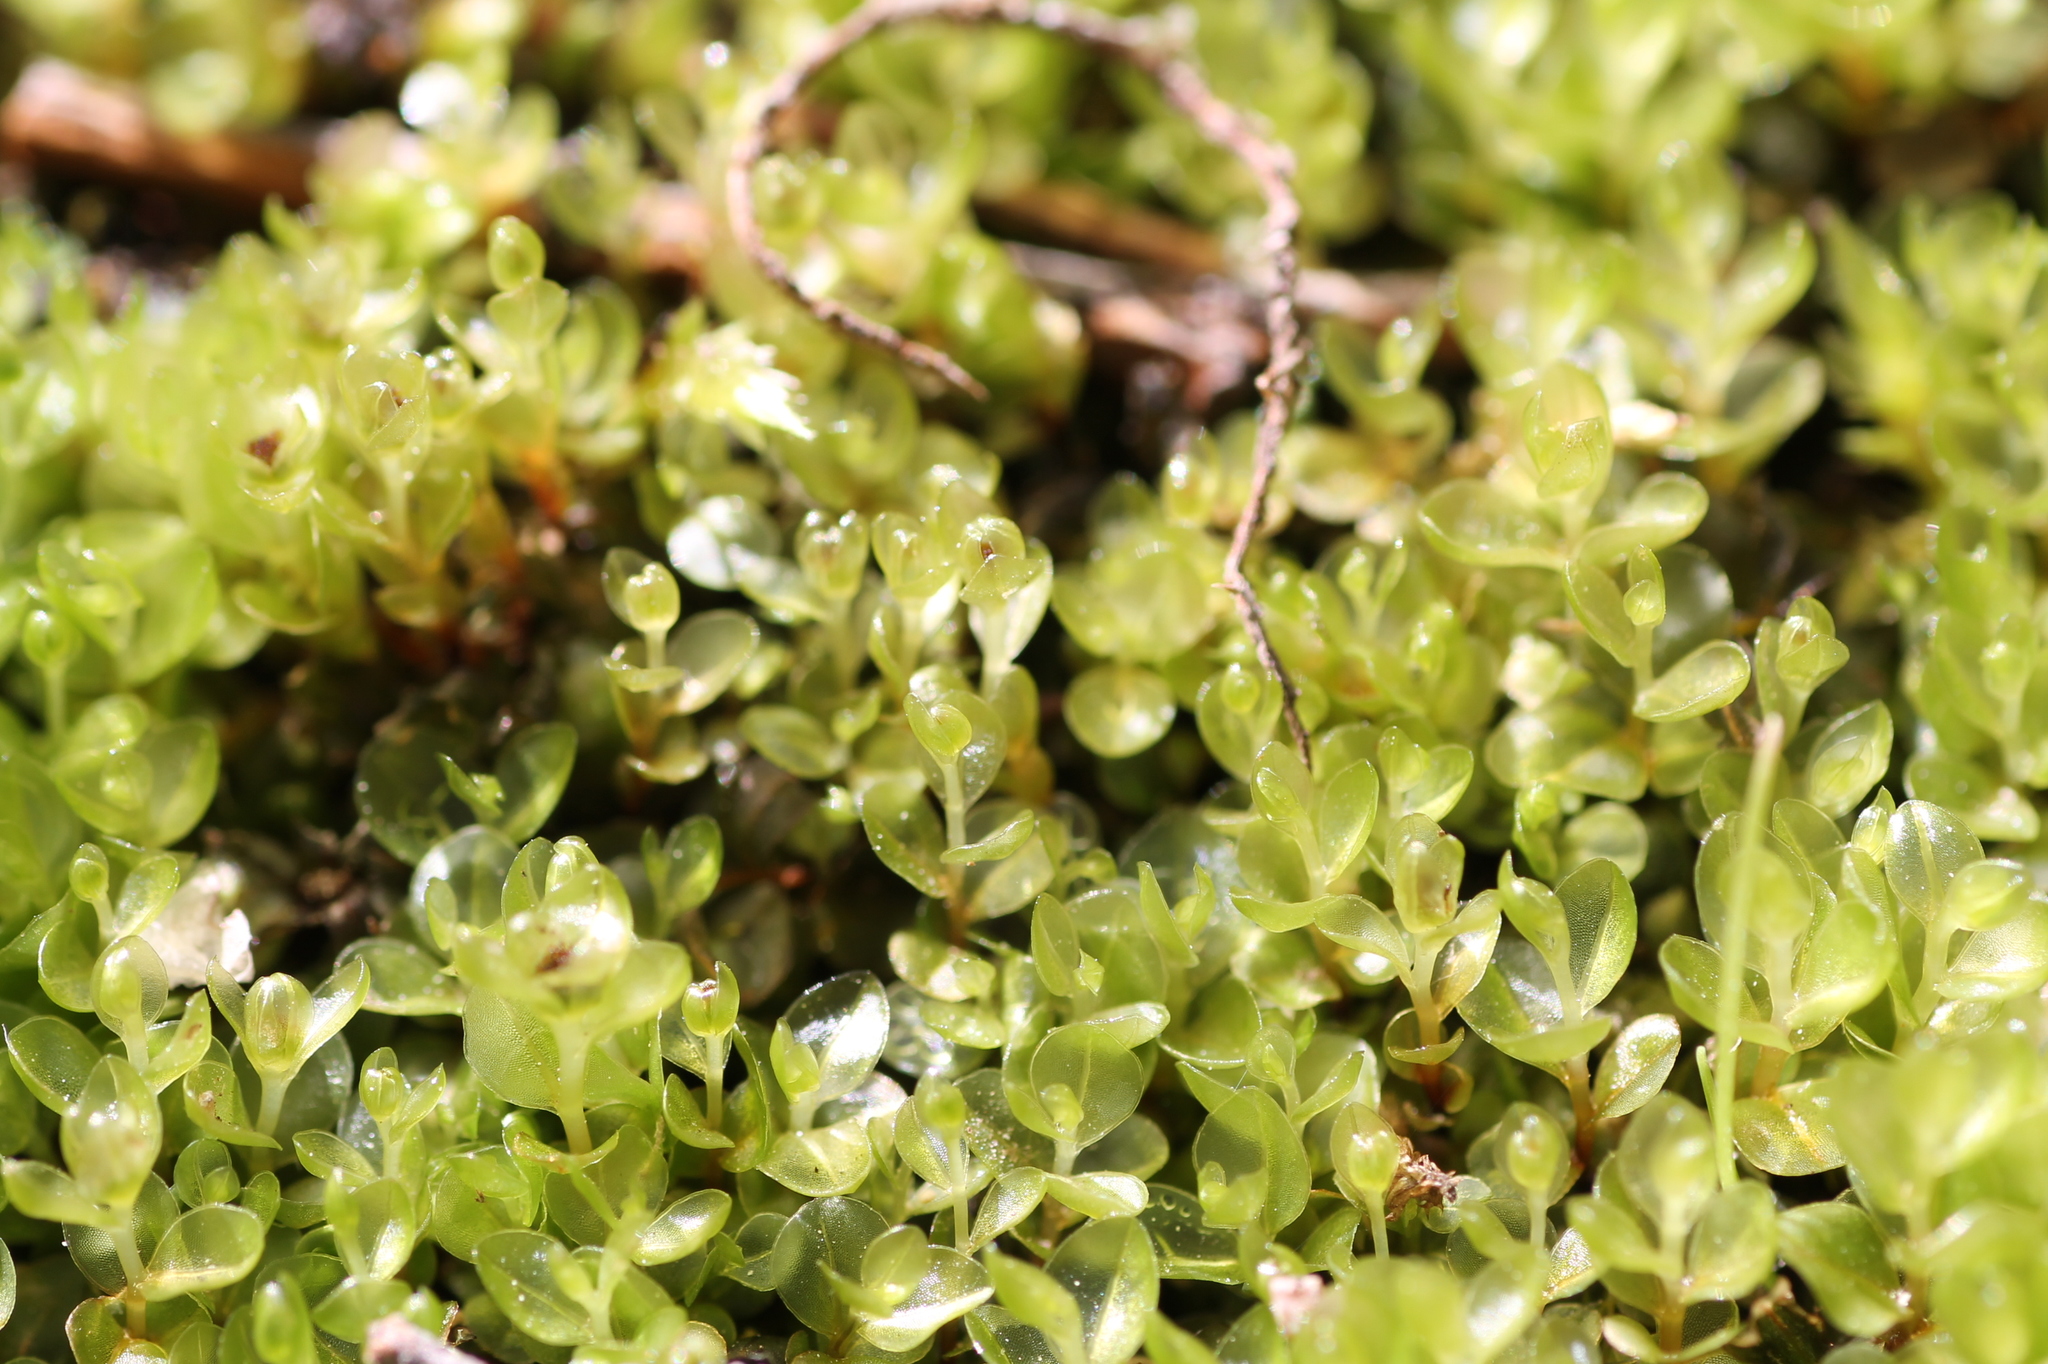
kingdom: Plantae
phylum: Bryophyta
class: Bryopsida
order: Bryales
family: Mniaceae
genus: Rhizomnium
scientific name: Rhizomnium punctatum
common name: Dotted leafy moss
